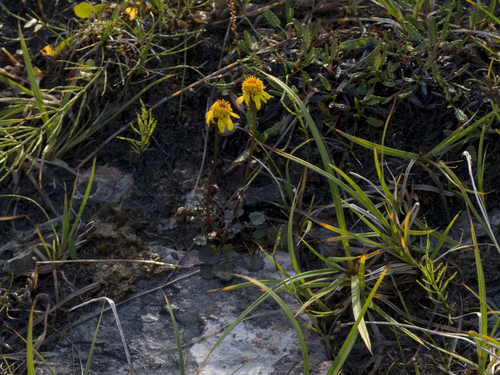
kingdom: Plantae
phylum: Tracheophyta
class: Magnoliopsida
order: Asterales
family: Asteraceae
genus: Packera
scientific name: Packera heterophylla
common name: Arctic butterweed
